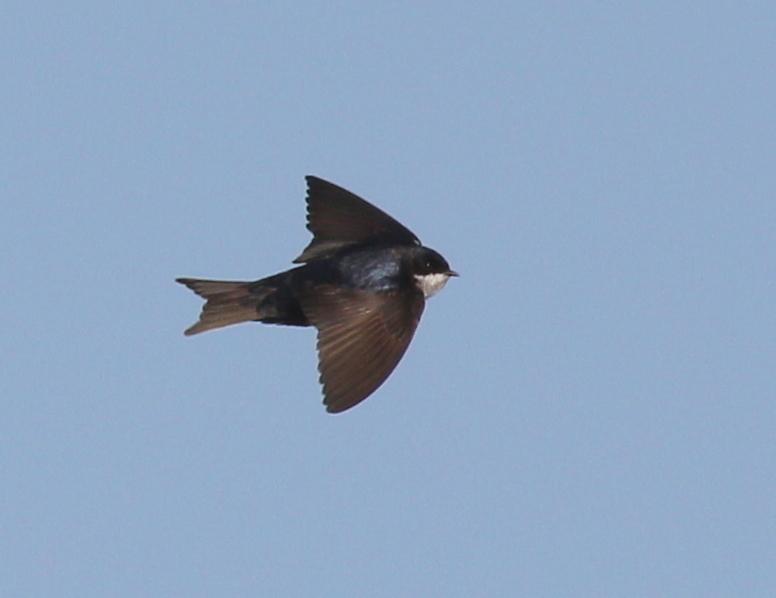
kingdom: Animalia
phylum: Chordata
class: Aves
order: Passeriformes
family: Hirundinidae
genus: Notiochelidon
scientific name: Notiochelidon cyanoleuca
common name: Blue-and-white swallow
